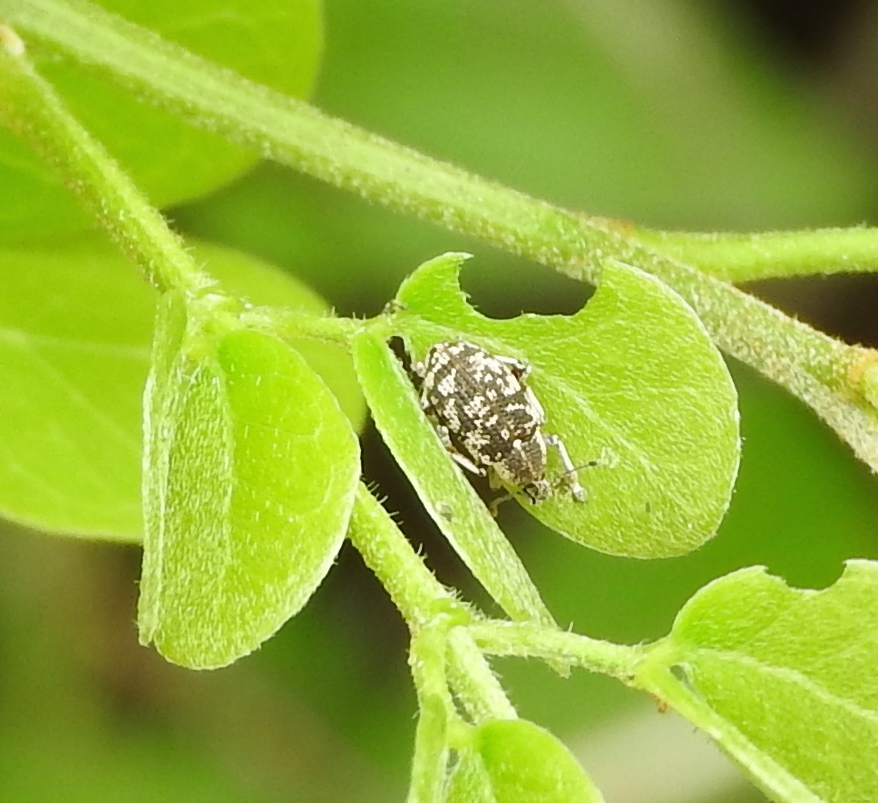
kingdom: Animalia
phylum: Arthropoda
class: Insecta
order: Coleoptera
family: Curculionidae
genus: Eucoleocerus
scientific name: Eucoleocerus conicicollis
